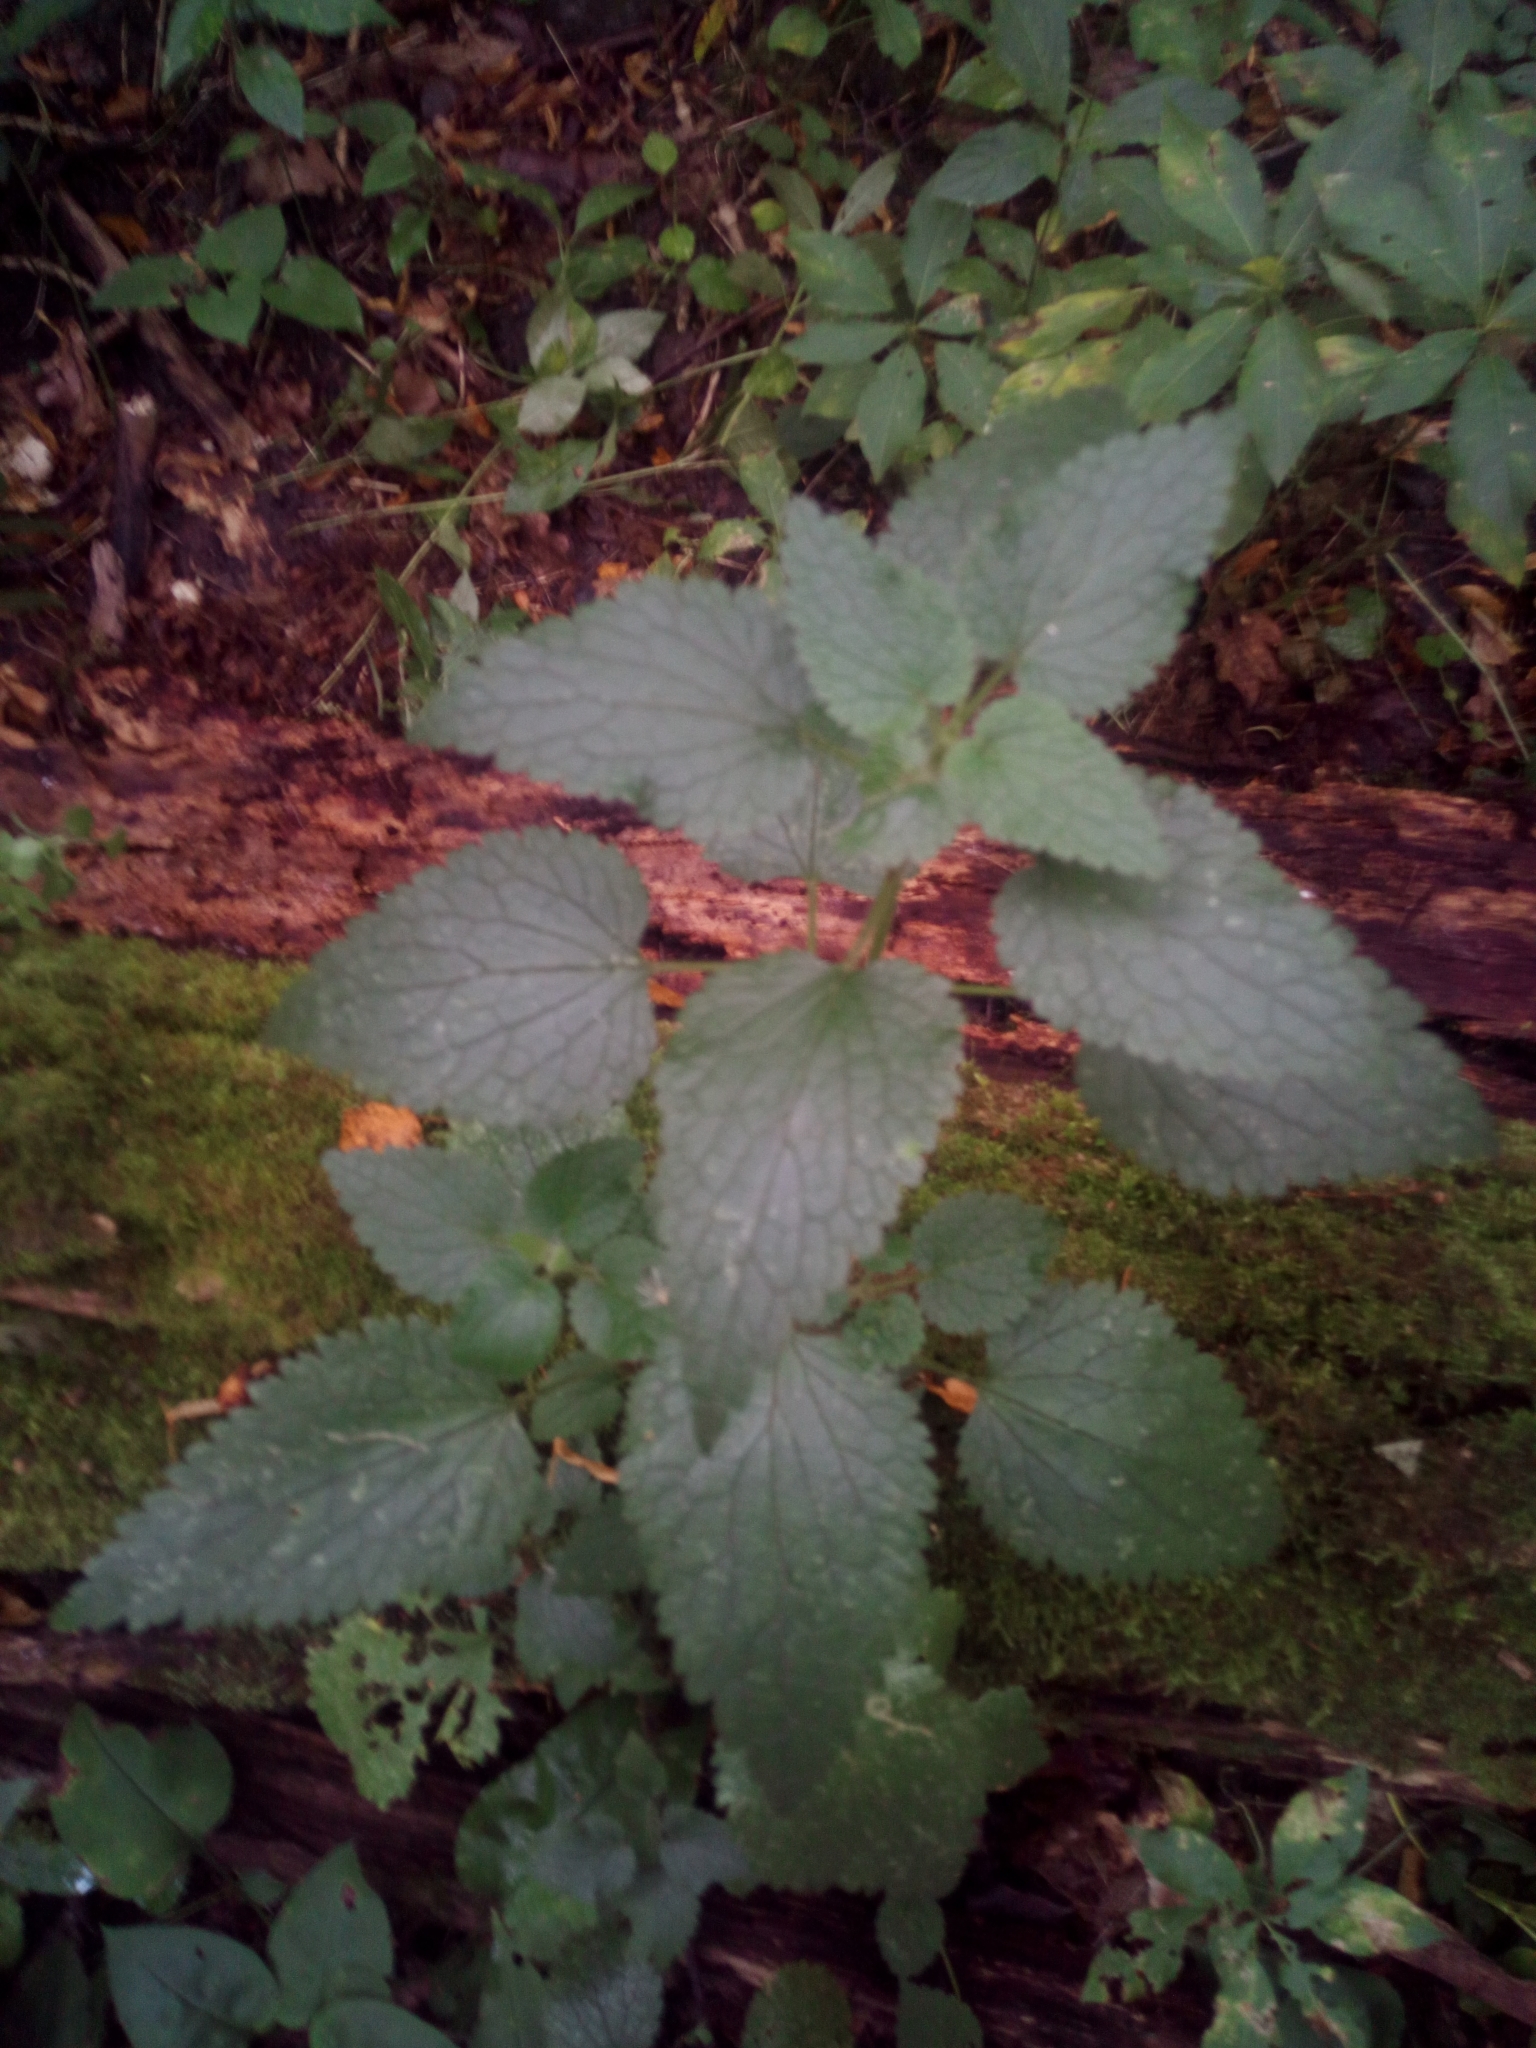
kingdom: Plantae
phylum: Tracheophyta
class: Magnoliopsida
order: Lamiales
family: Lamiaceae
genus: Lamium
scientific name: Lamium album
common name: White dead-nettle
